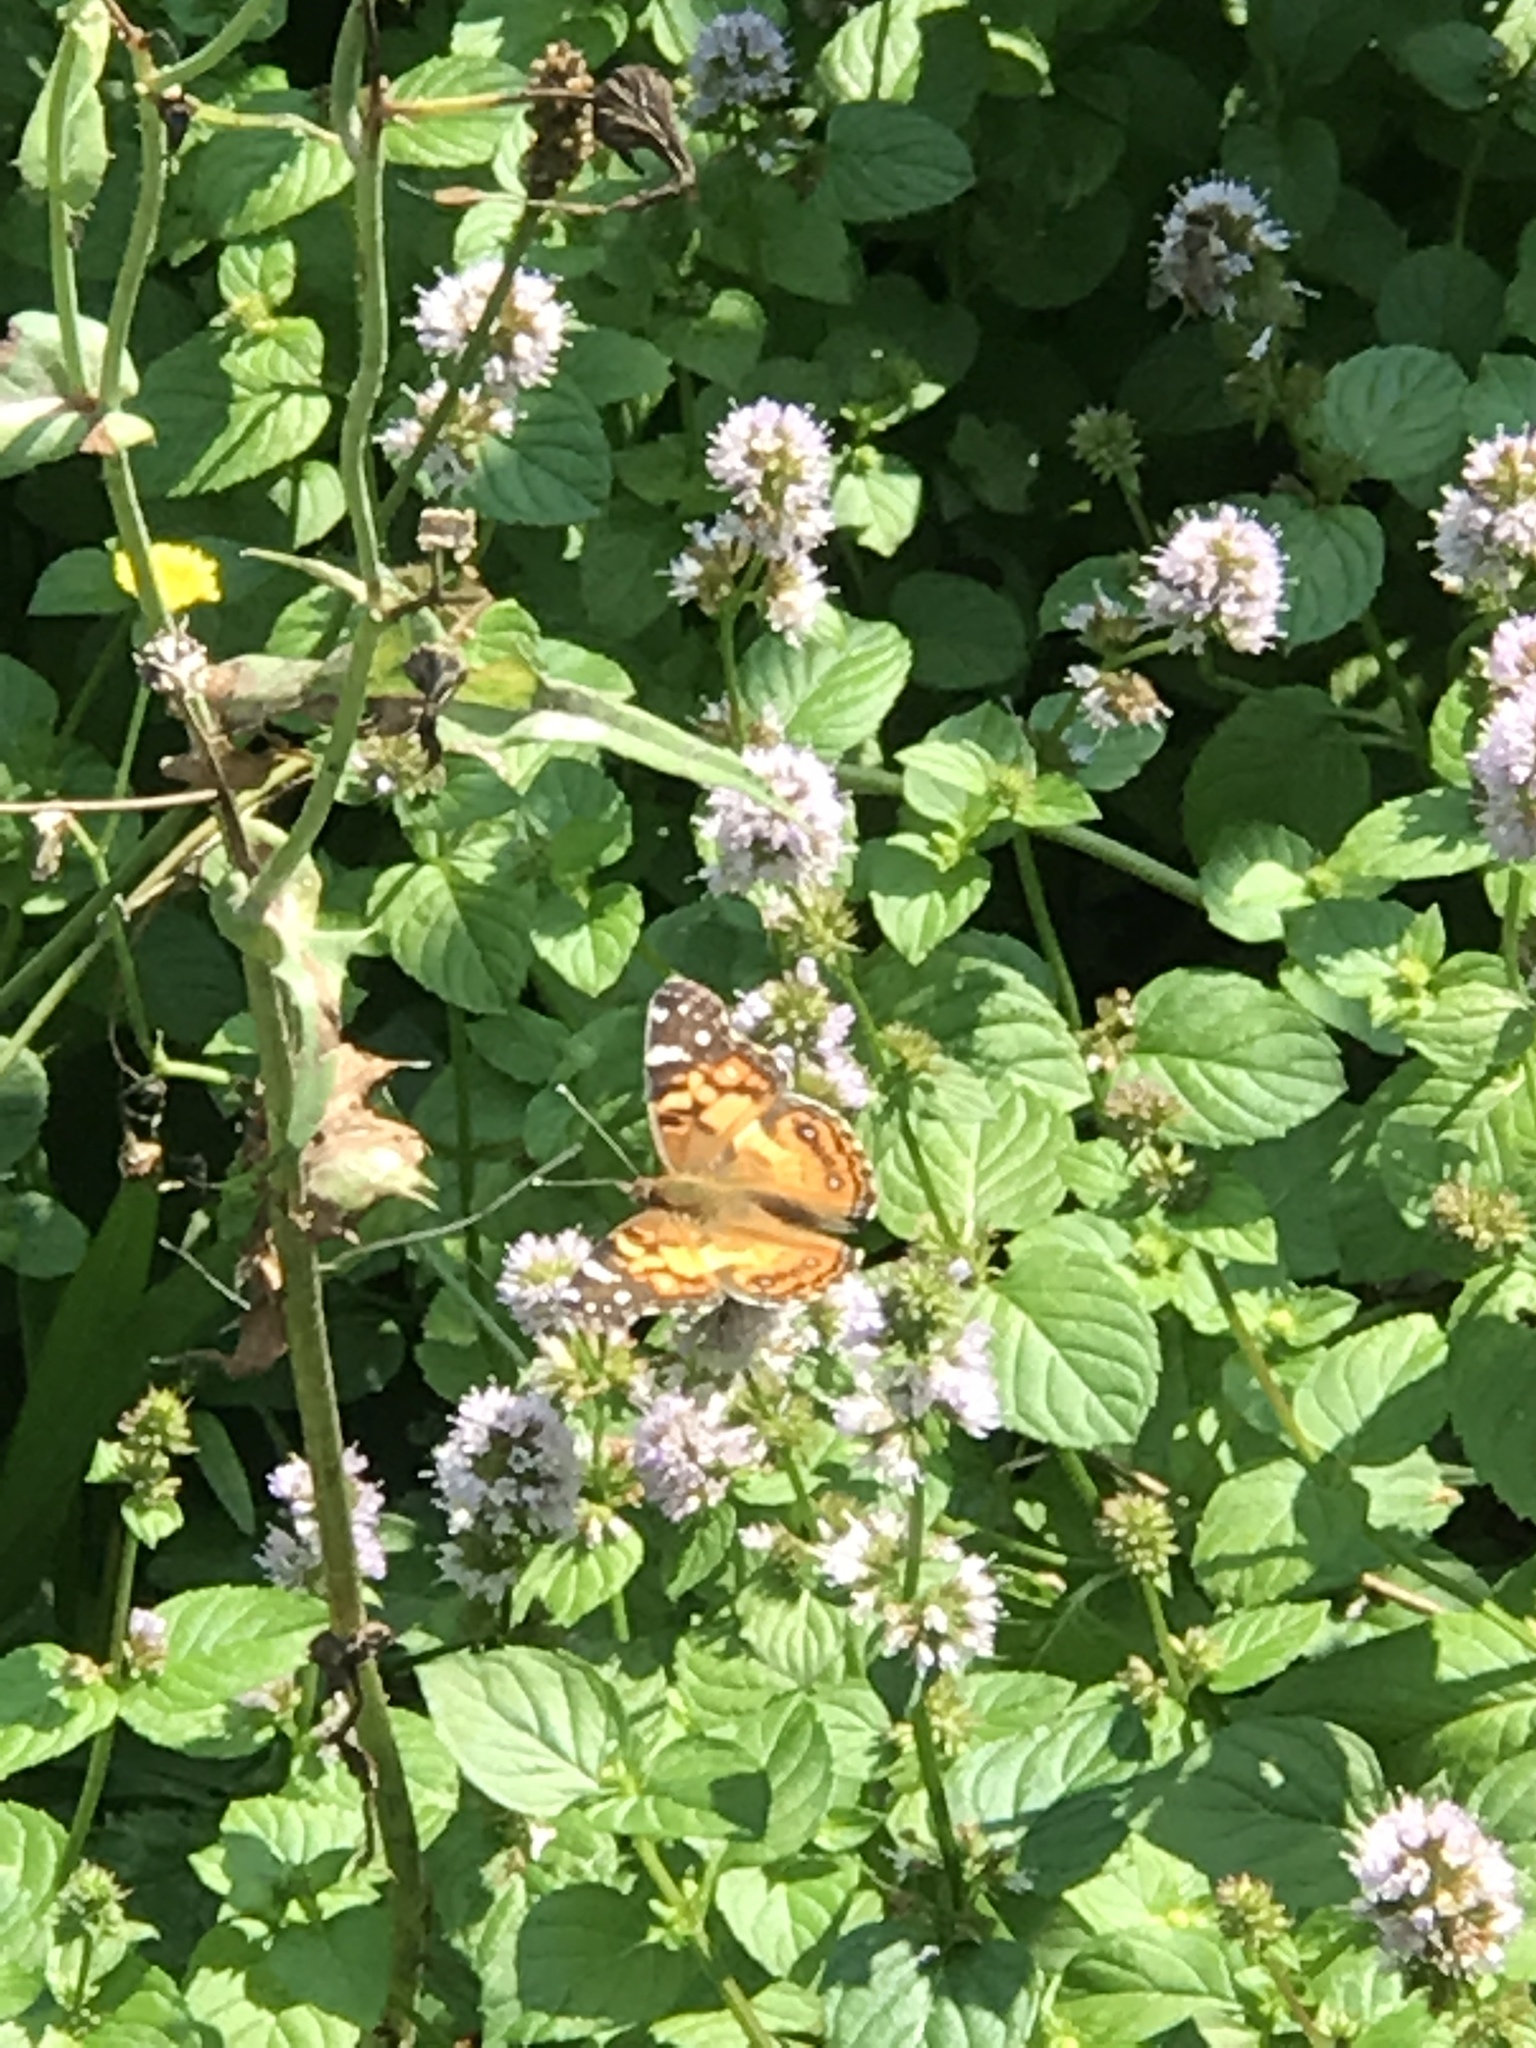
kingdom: Animalia
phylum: Arthropoda
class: Insecta
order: Lepidoptera
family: Nymphalidae
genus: Vanessa
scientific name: Vanessa virginiensis
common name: American lady
